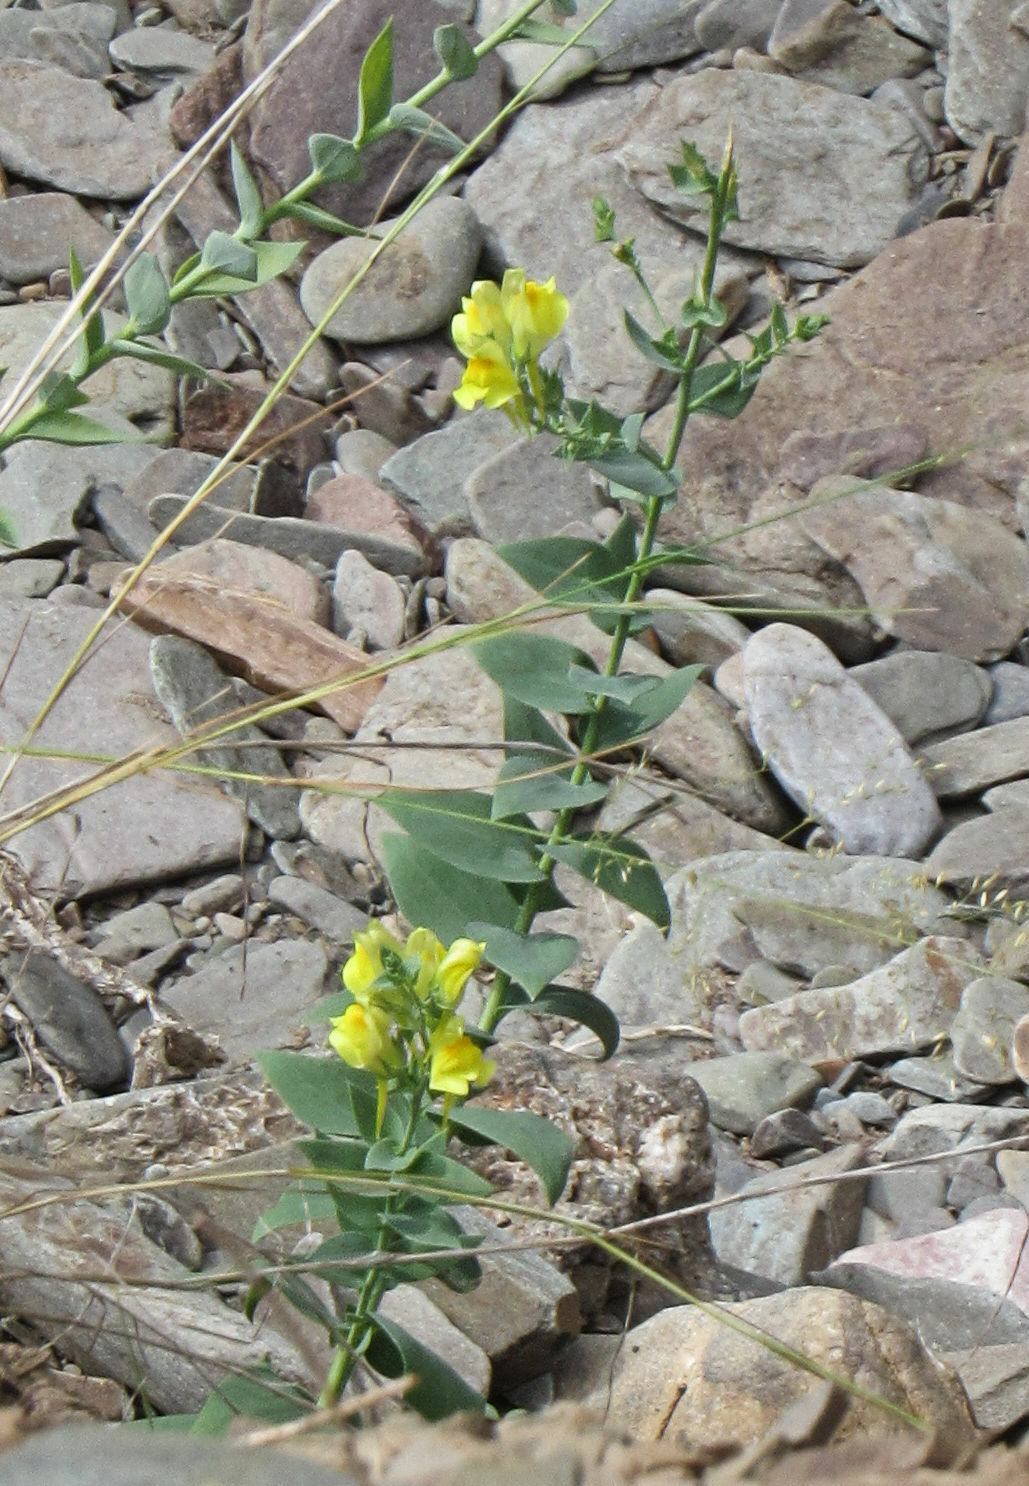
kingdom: Plantae
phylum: Tracheophyta
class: Magnoliopsida
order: Lamiales
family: Plantaginaceae
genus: Linaria
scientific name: Linaria dalmatica
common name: Dalmatian toadflax
